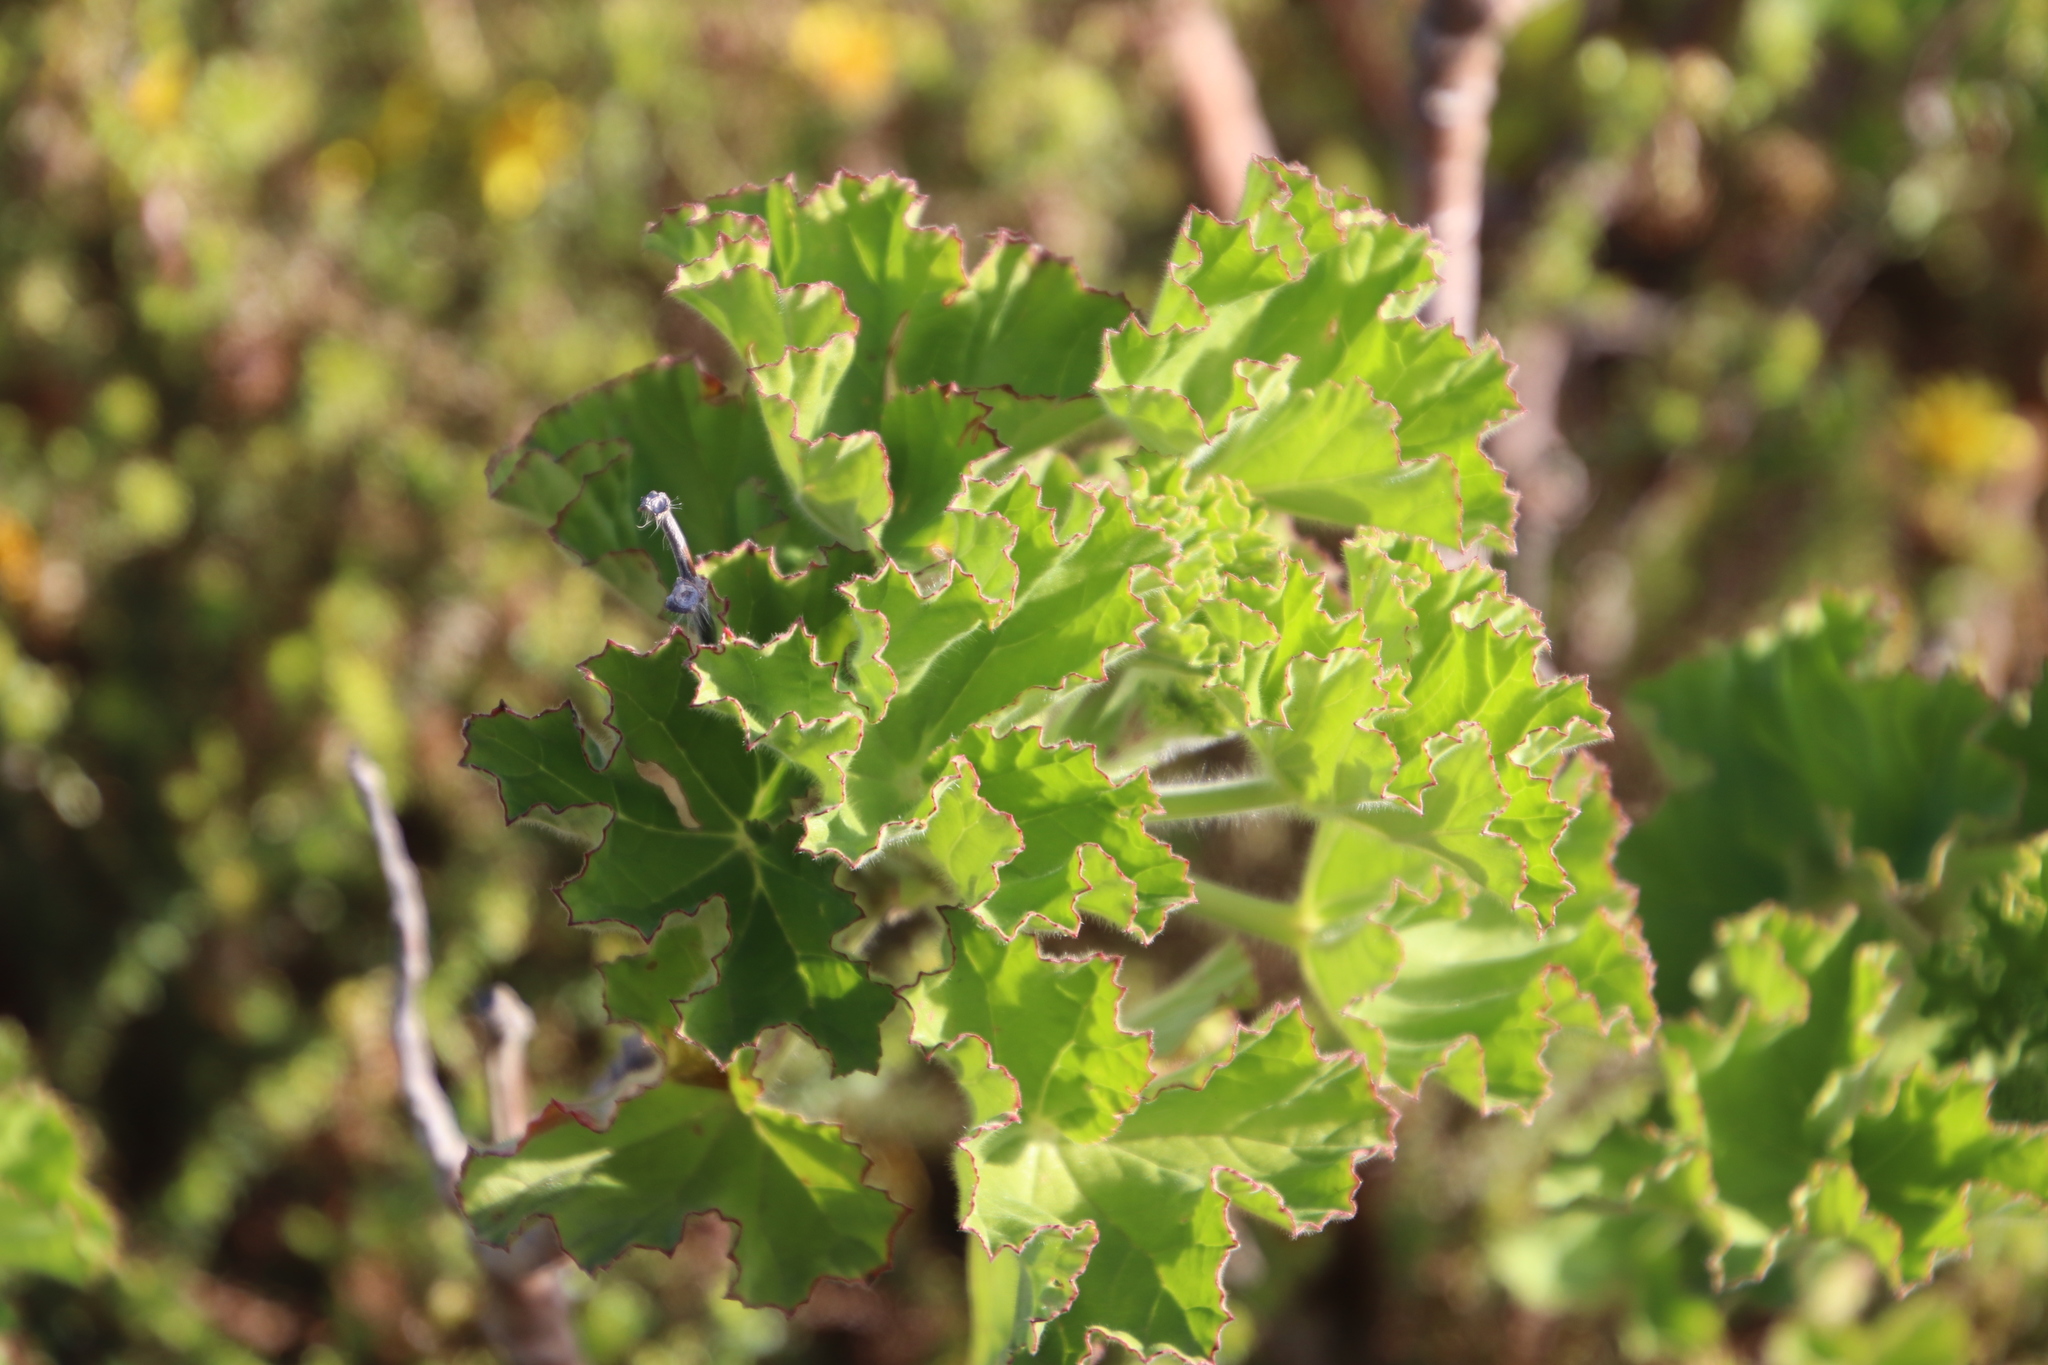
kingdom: Plantae
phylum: Tracheophyta
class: Magnoliopsida
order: Geraniales
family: Geraniaceae
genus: Pelargonium
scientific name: Pelargonium cucullatum
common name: Tree pelargonium
